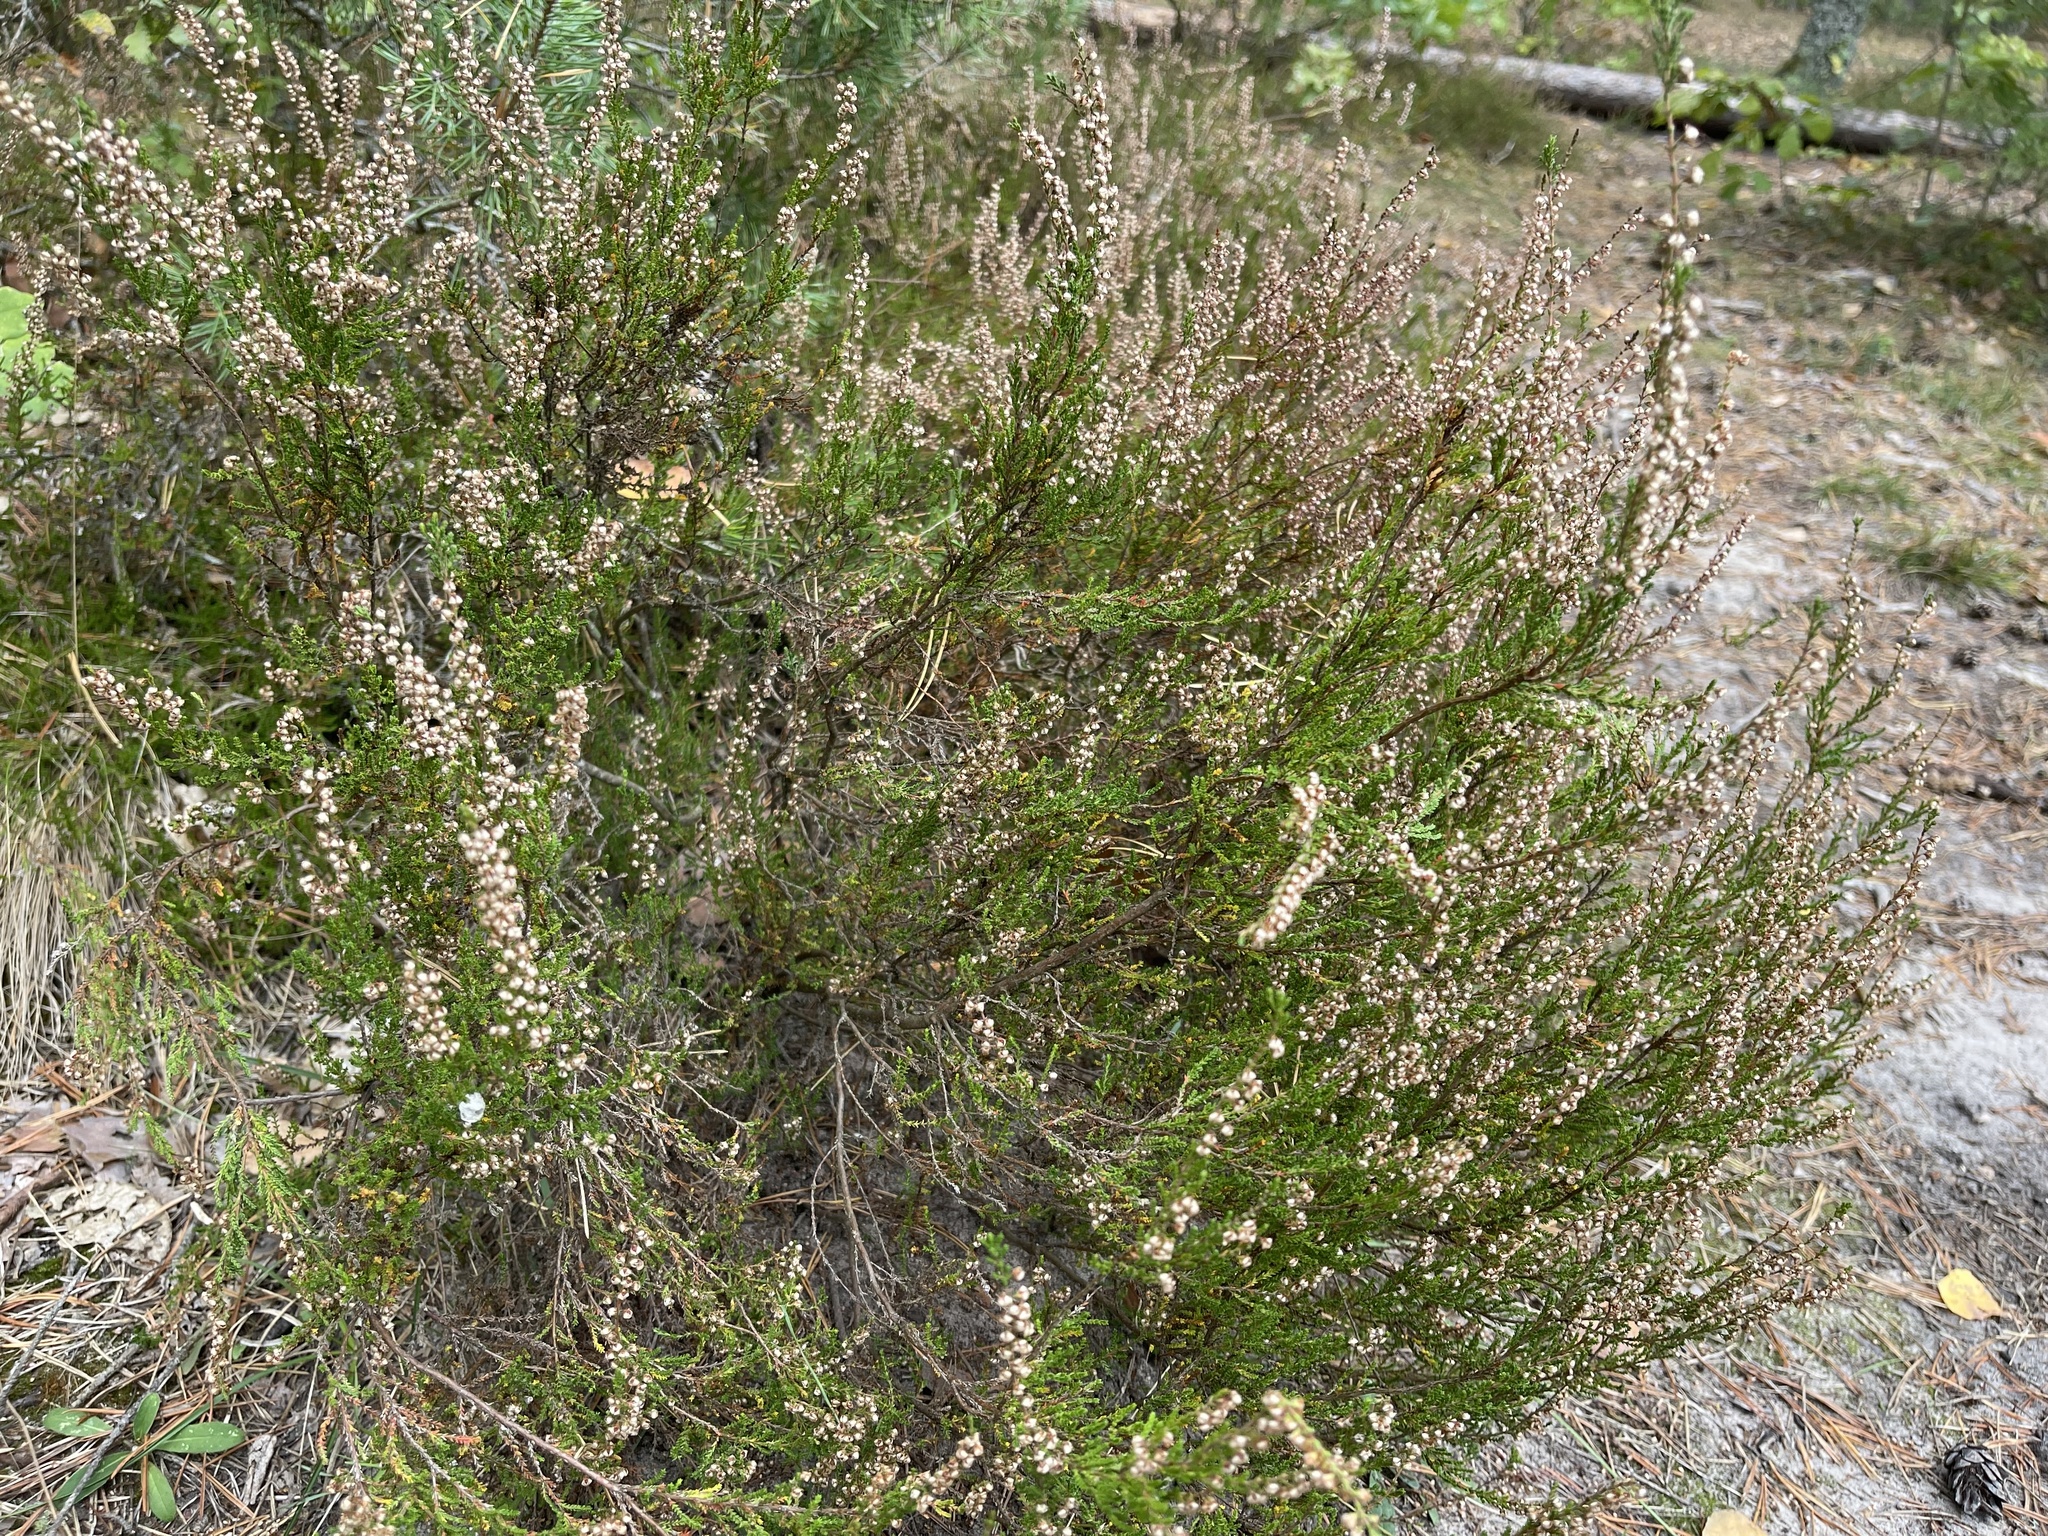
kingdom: Plantae
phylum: Tracheophyta
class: Magnoliopsida
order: Ericales
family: Ericaceae
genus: Calluna
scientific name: Calluna vulgaris
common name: Heather
